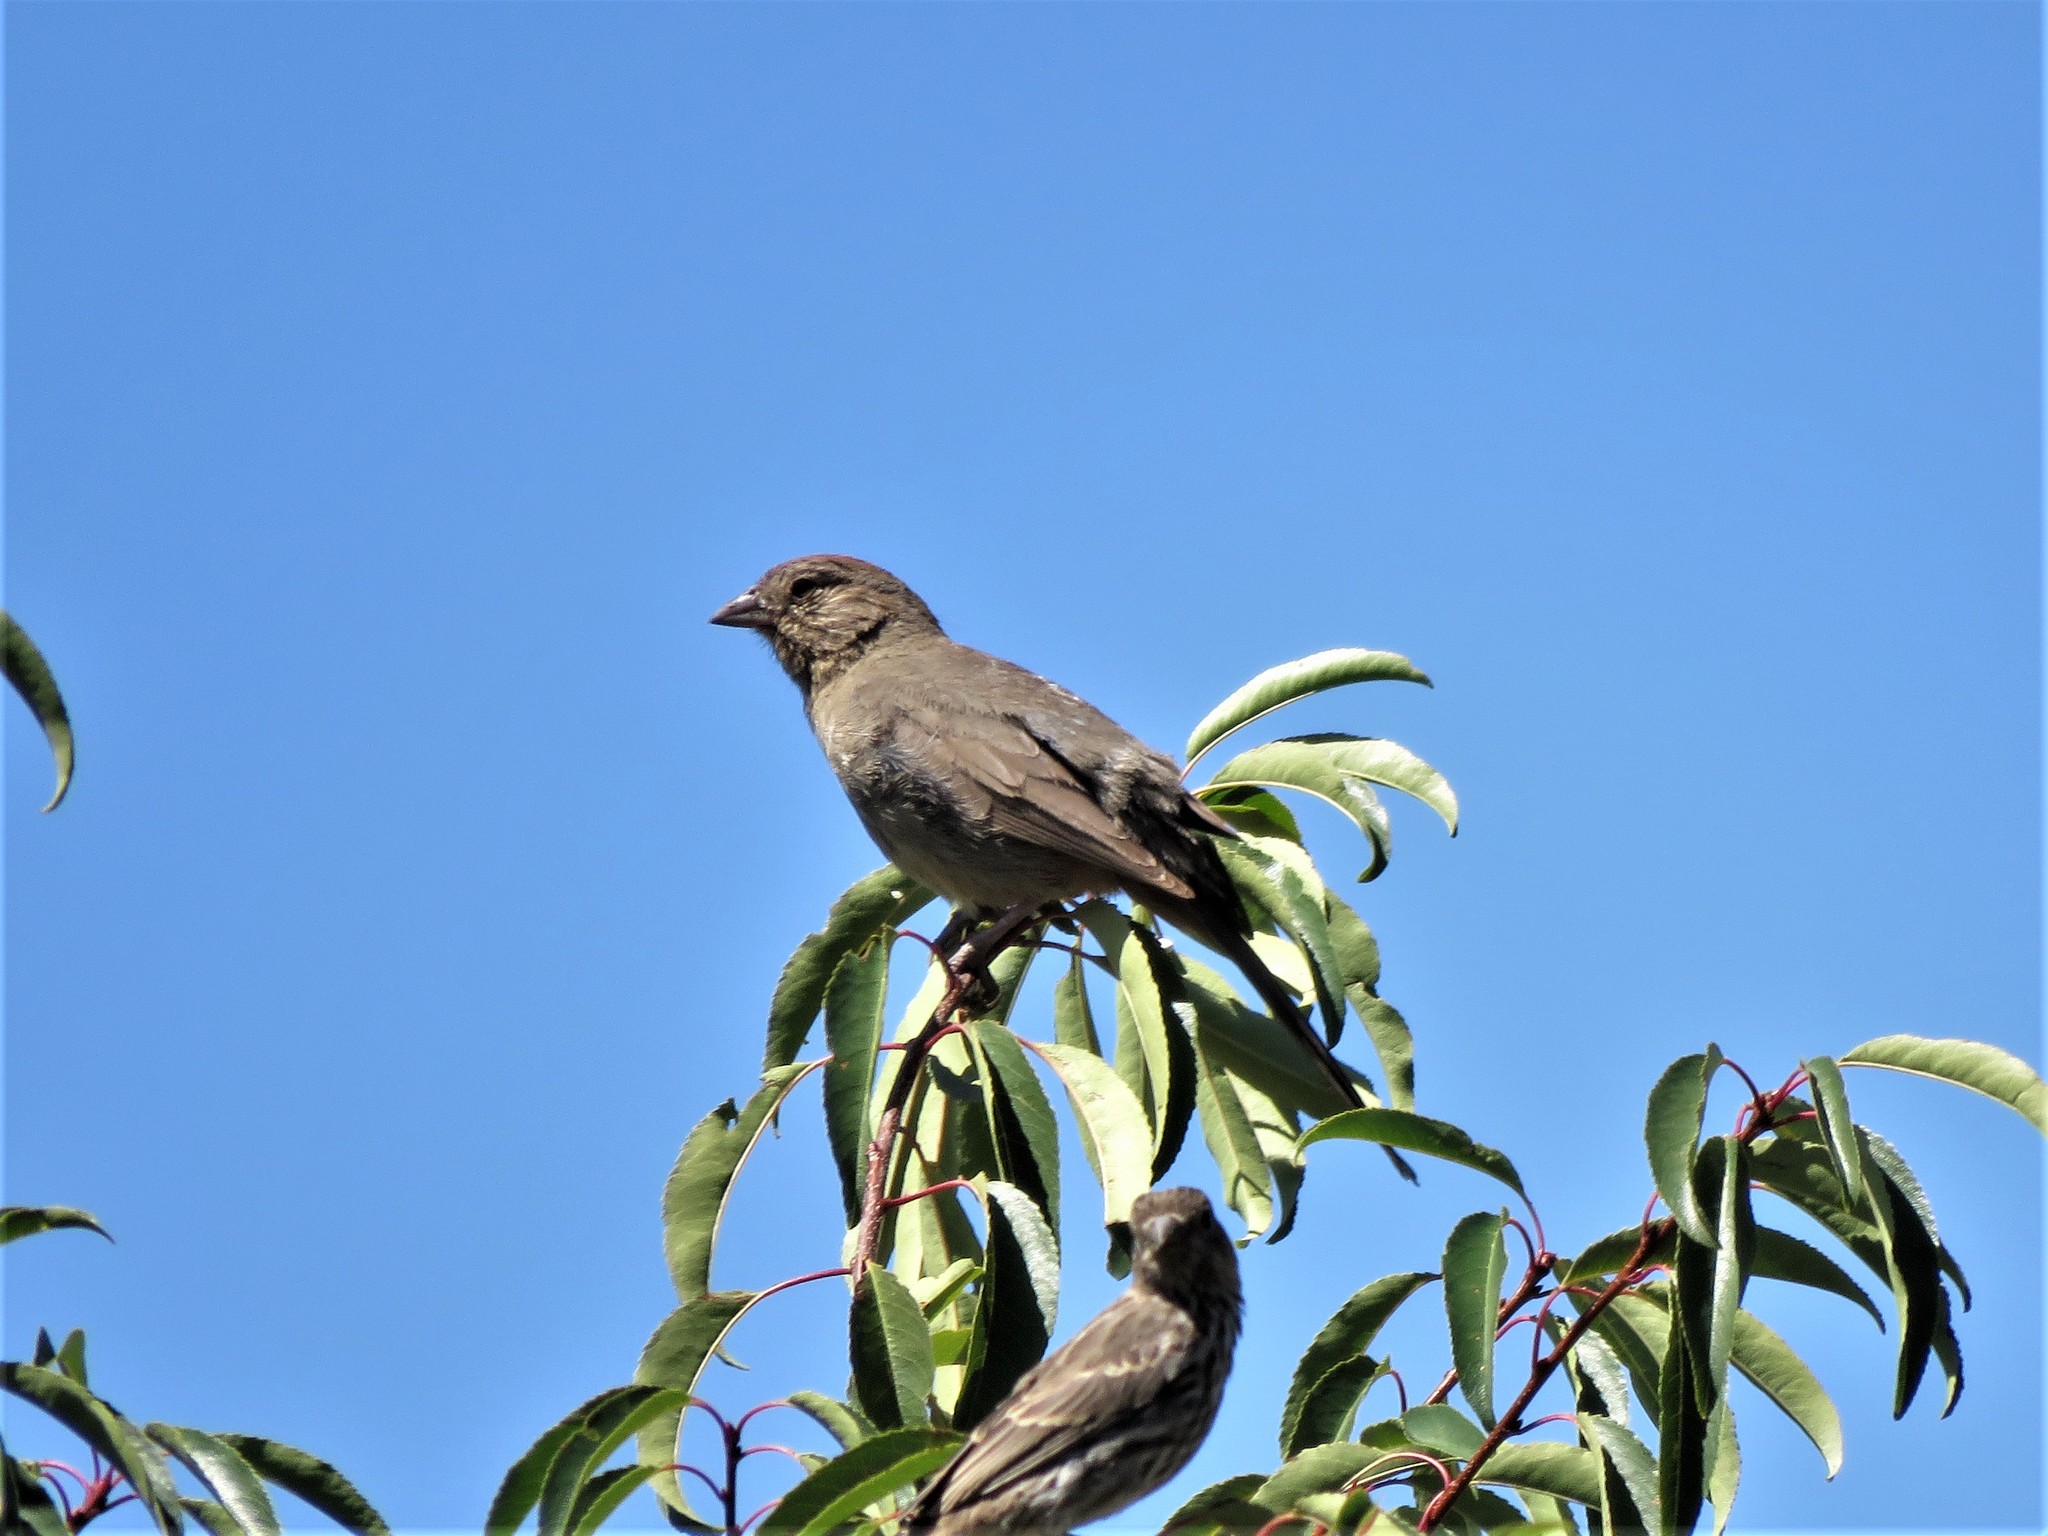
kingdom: Animalia
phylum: Chordata
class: Aves
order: Passeriformes
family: Passerellidae
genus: Melozone
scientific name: Melozone fusca
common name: Canyon towhee
